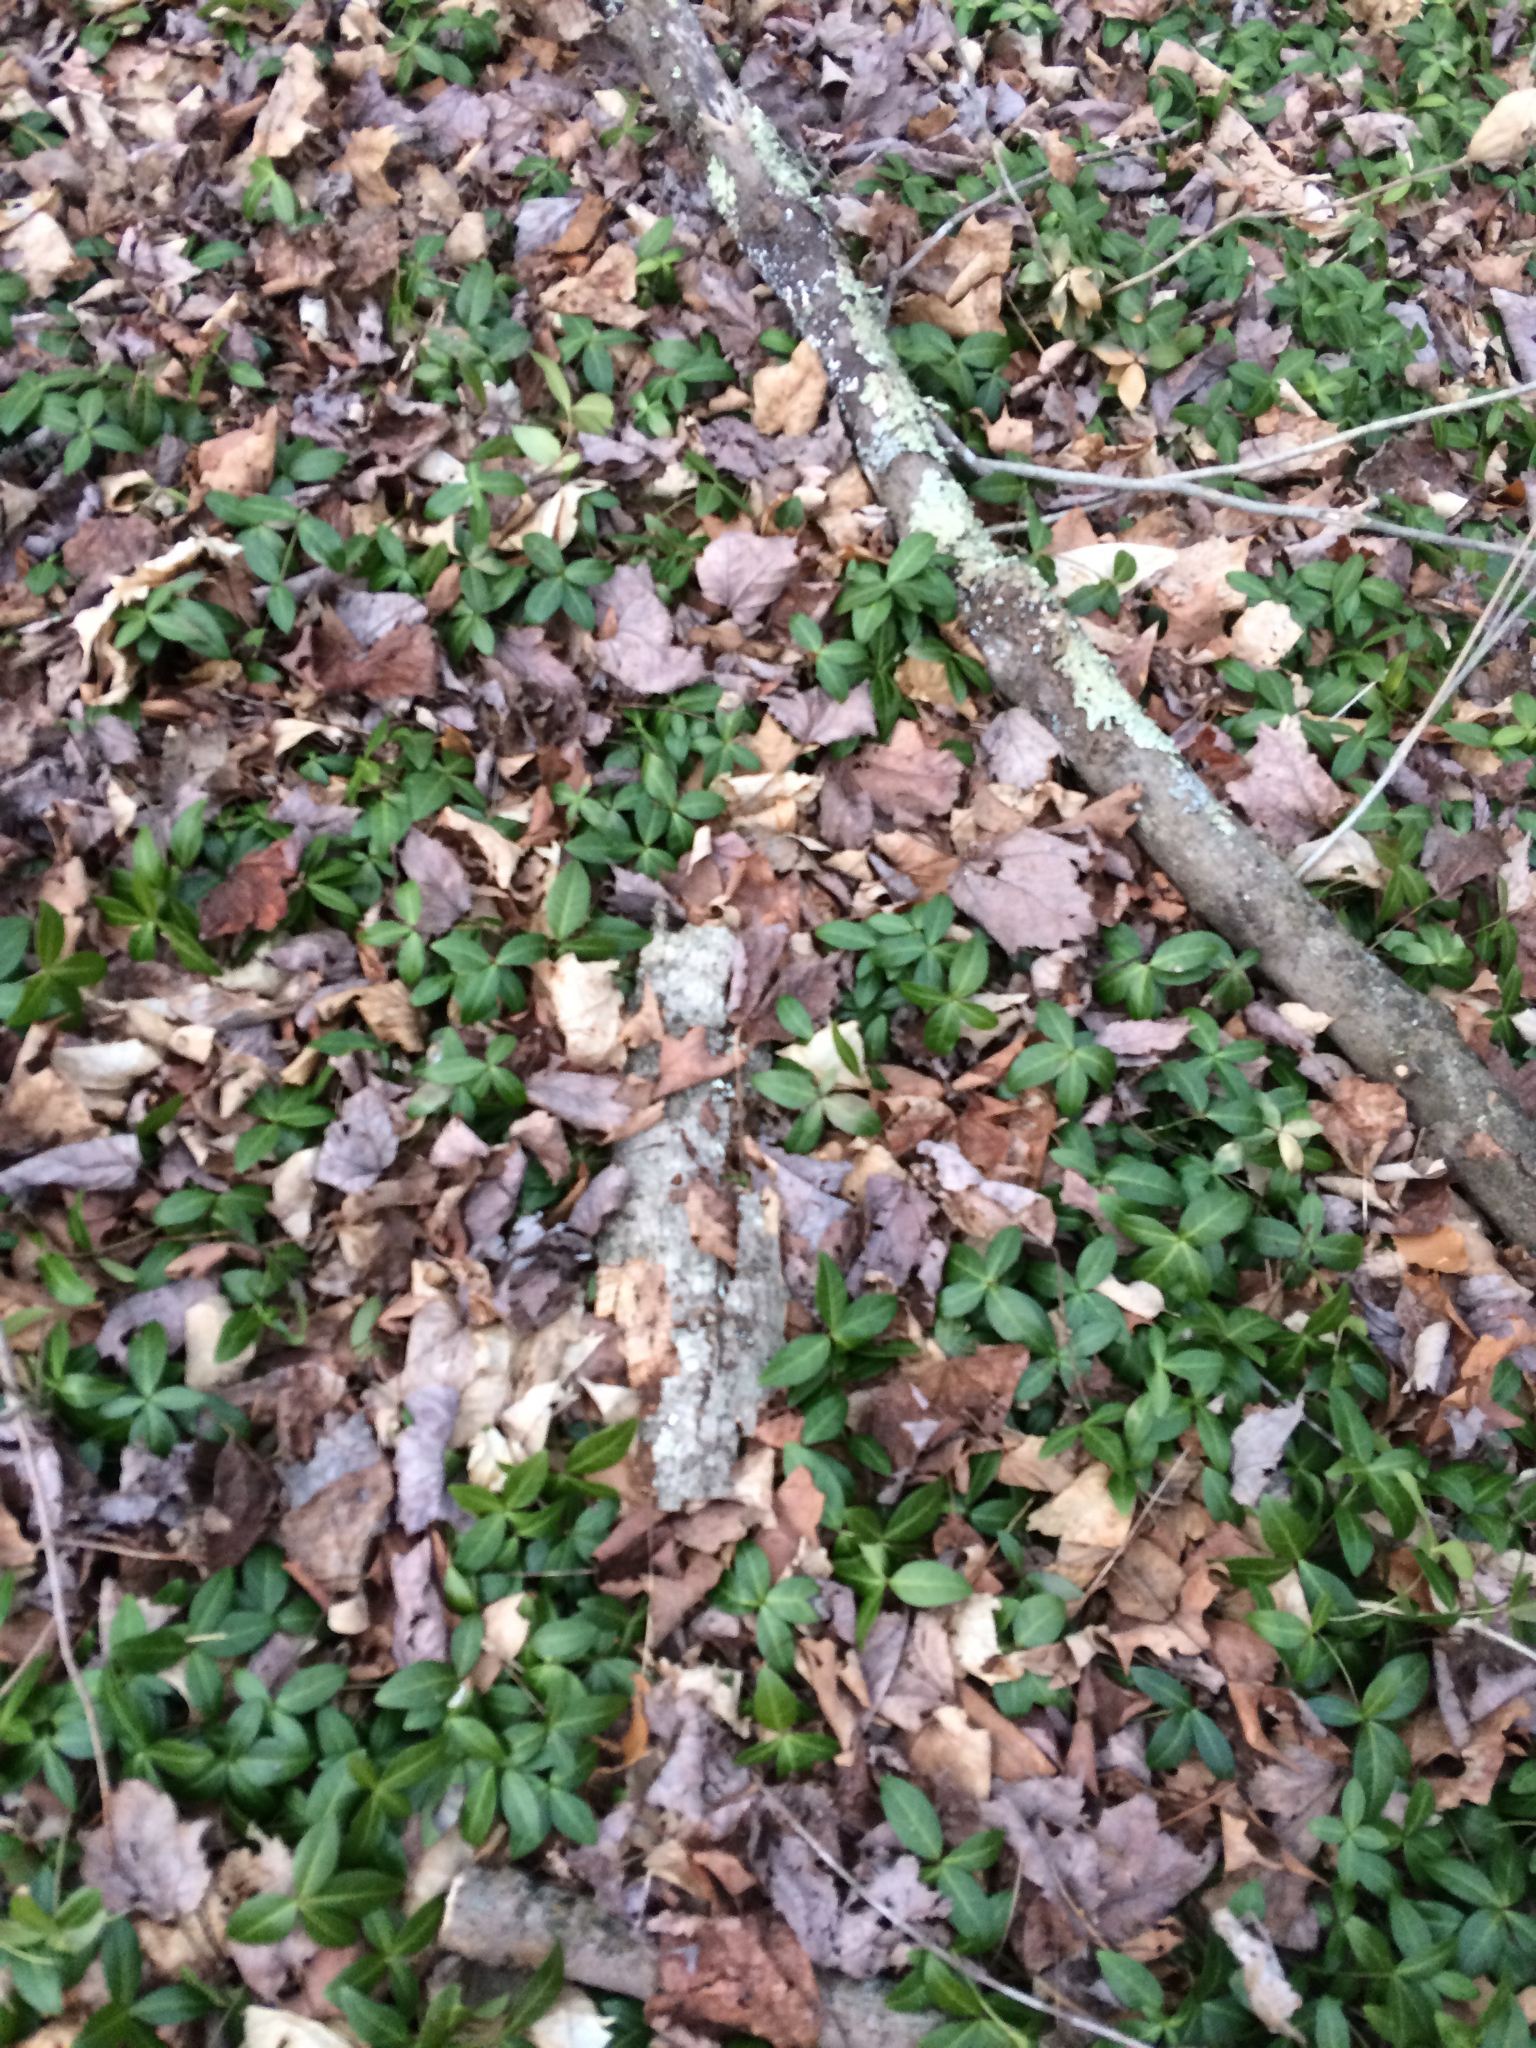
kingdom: Plantae
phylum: Tracheophyta
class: Magnoliopsida
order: Gentianales
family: Apocynaceae
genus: Vinca
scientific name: Vinca minor
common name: Lesser periwinkle
